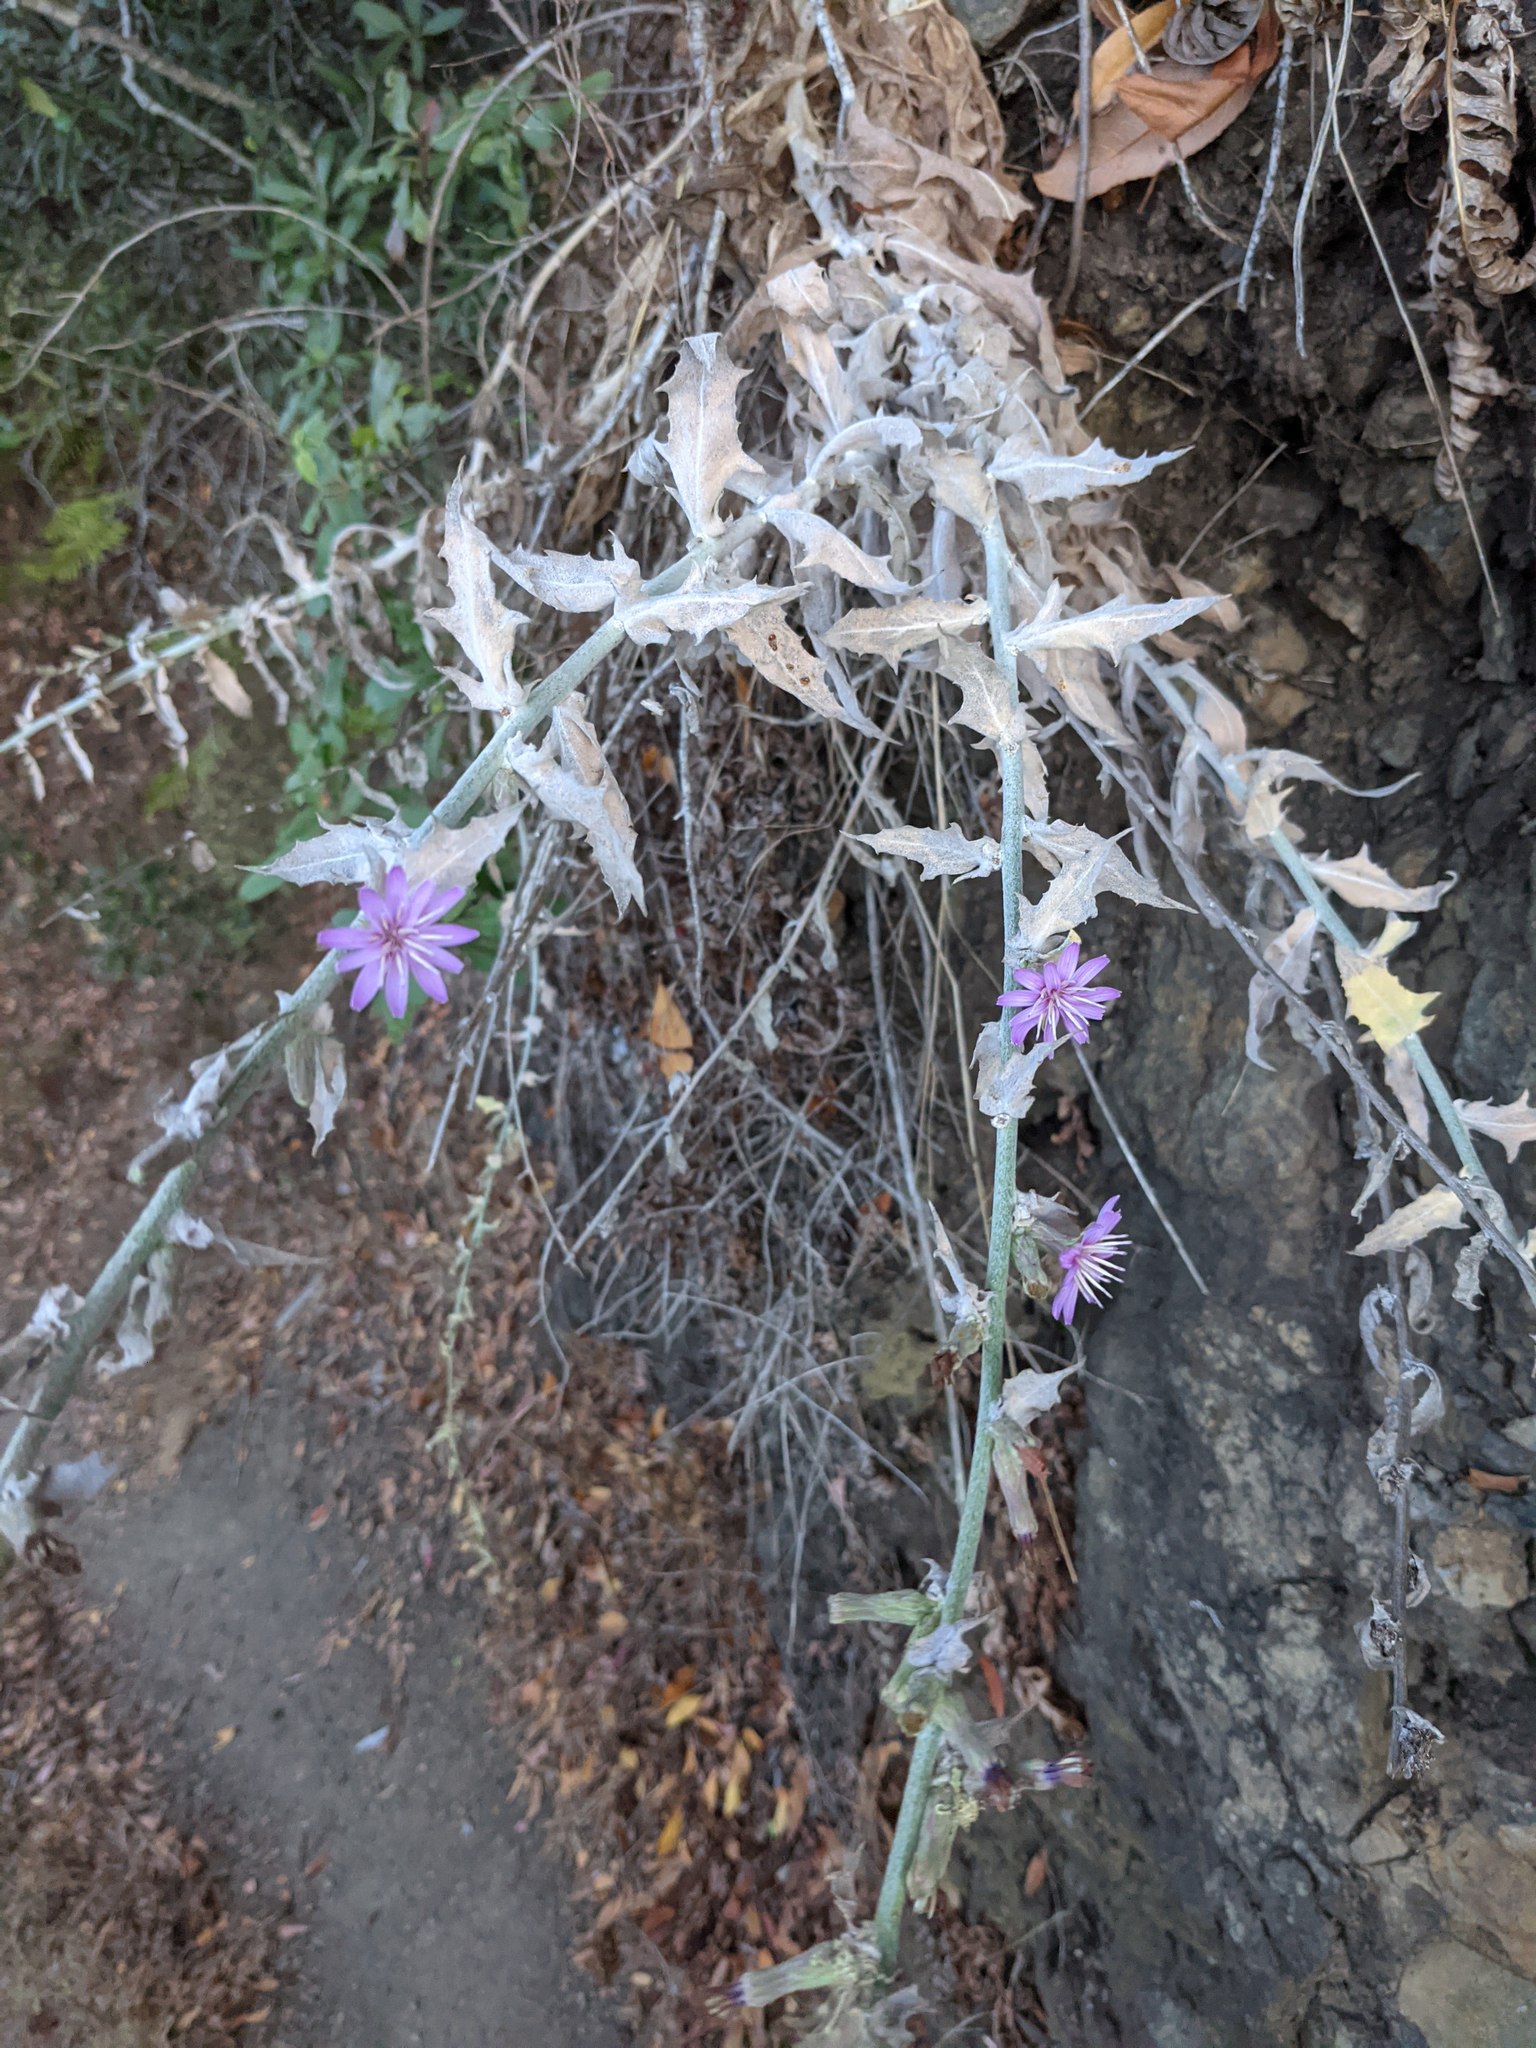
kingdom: Plantae
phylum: Tracheophyta
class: Magnoliopsida
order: Asterales
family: Asteraceae
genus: Stephanomeria
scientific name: Stephanomeria cichoriacea
